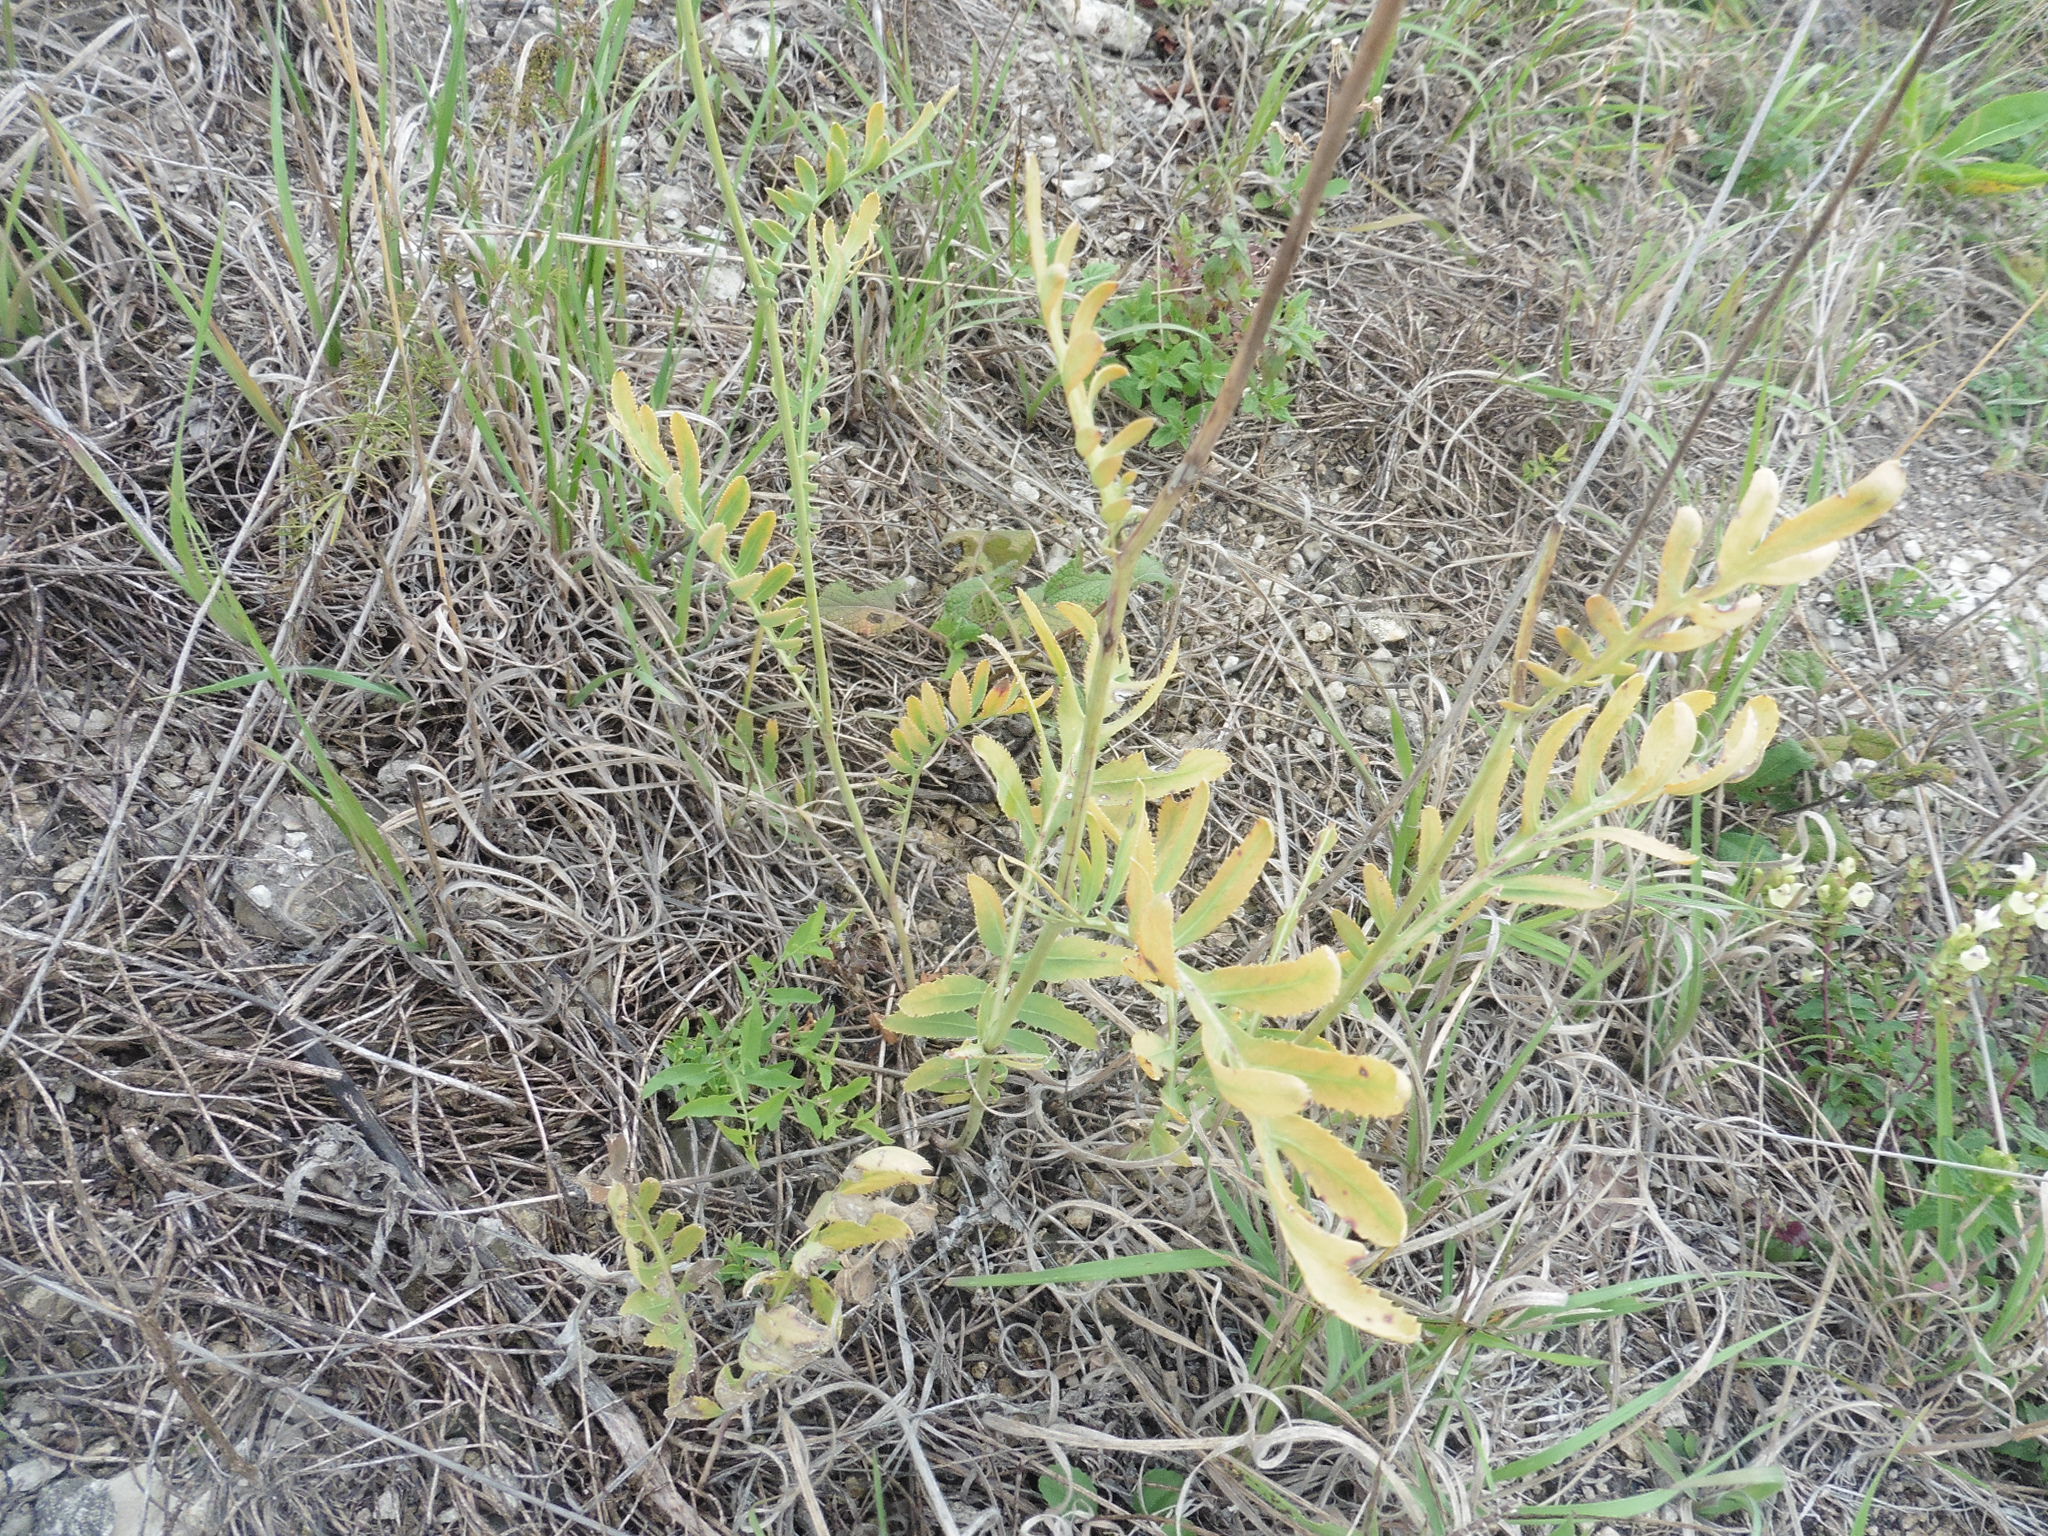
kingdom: Plantae
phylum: Tracheophyta
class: Magnoliopsida
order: Asterales
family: Asteraceae
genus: Rhaponticoides
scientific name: Rhaponticoides ruthenica
